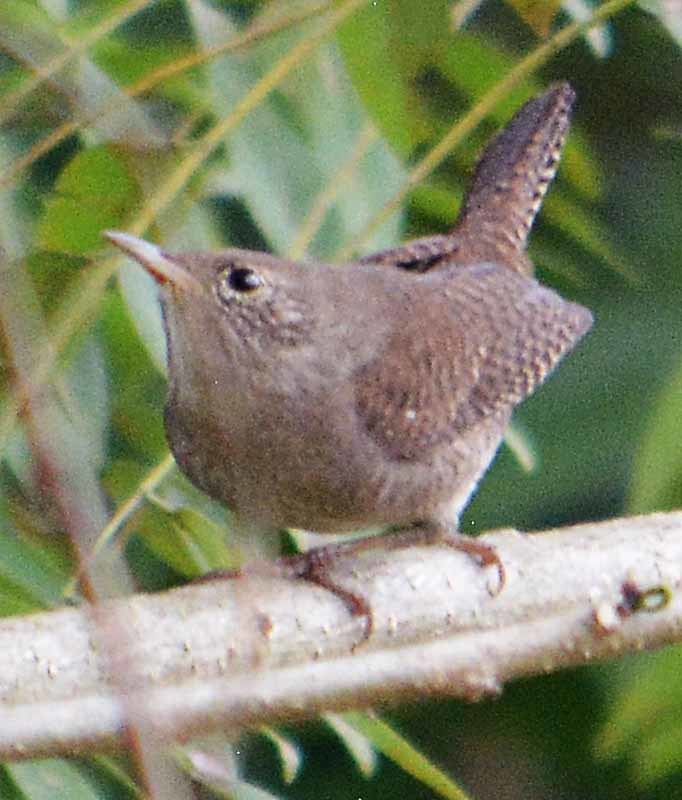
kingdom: Animalia
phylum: Chordata
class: Aves
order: Passeriformes
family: Troglodytidae
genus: Troglodytes
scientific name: Troglodytes aedon
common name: House wren
